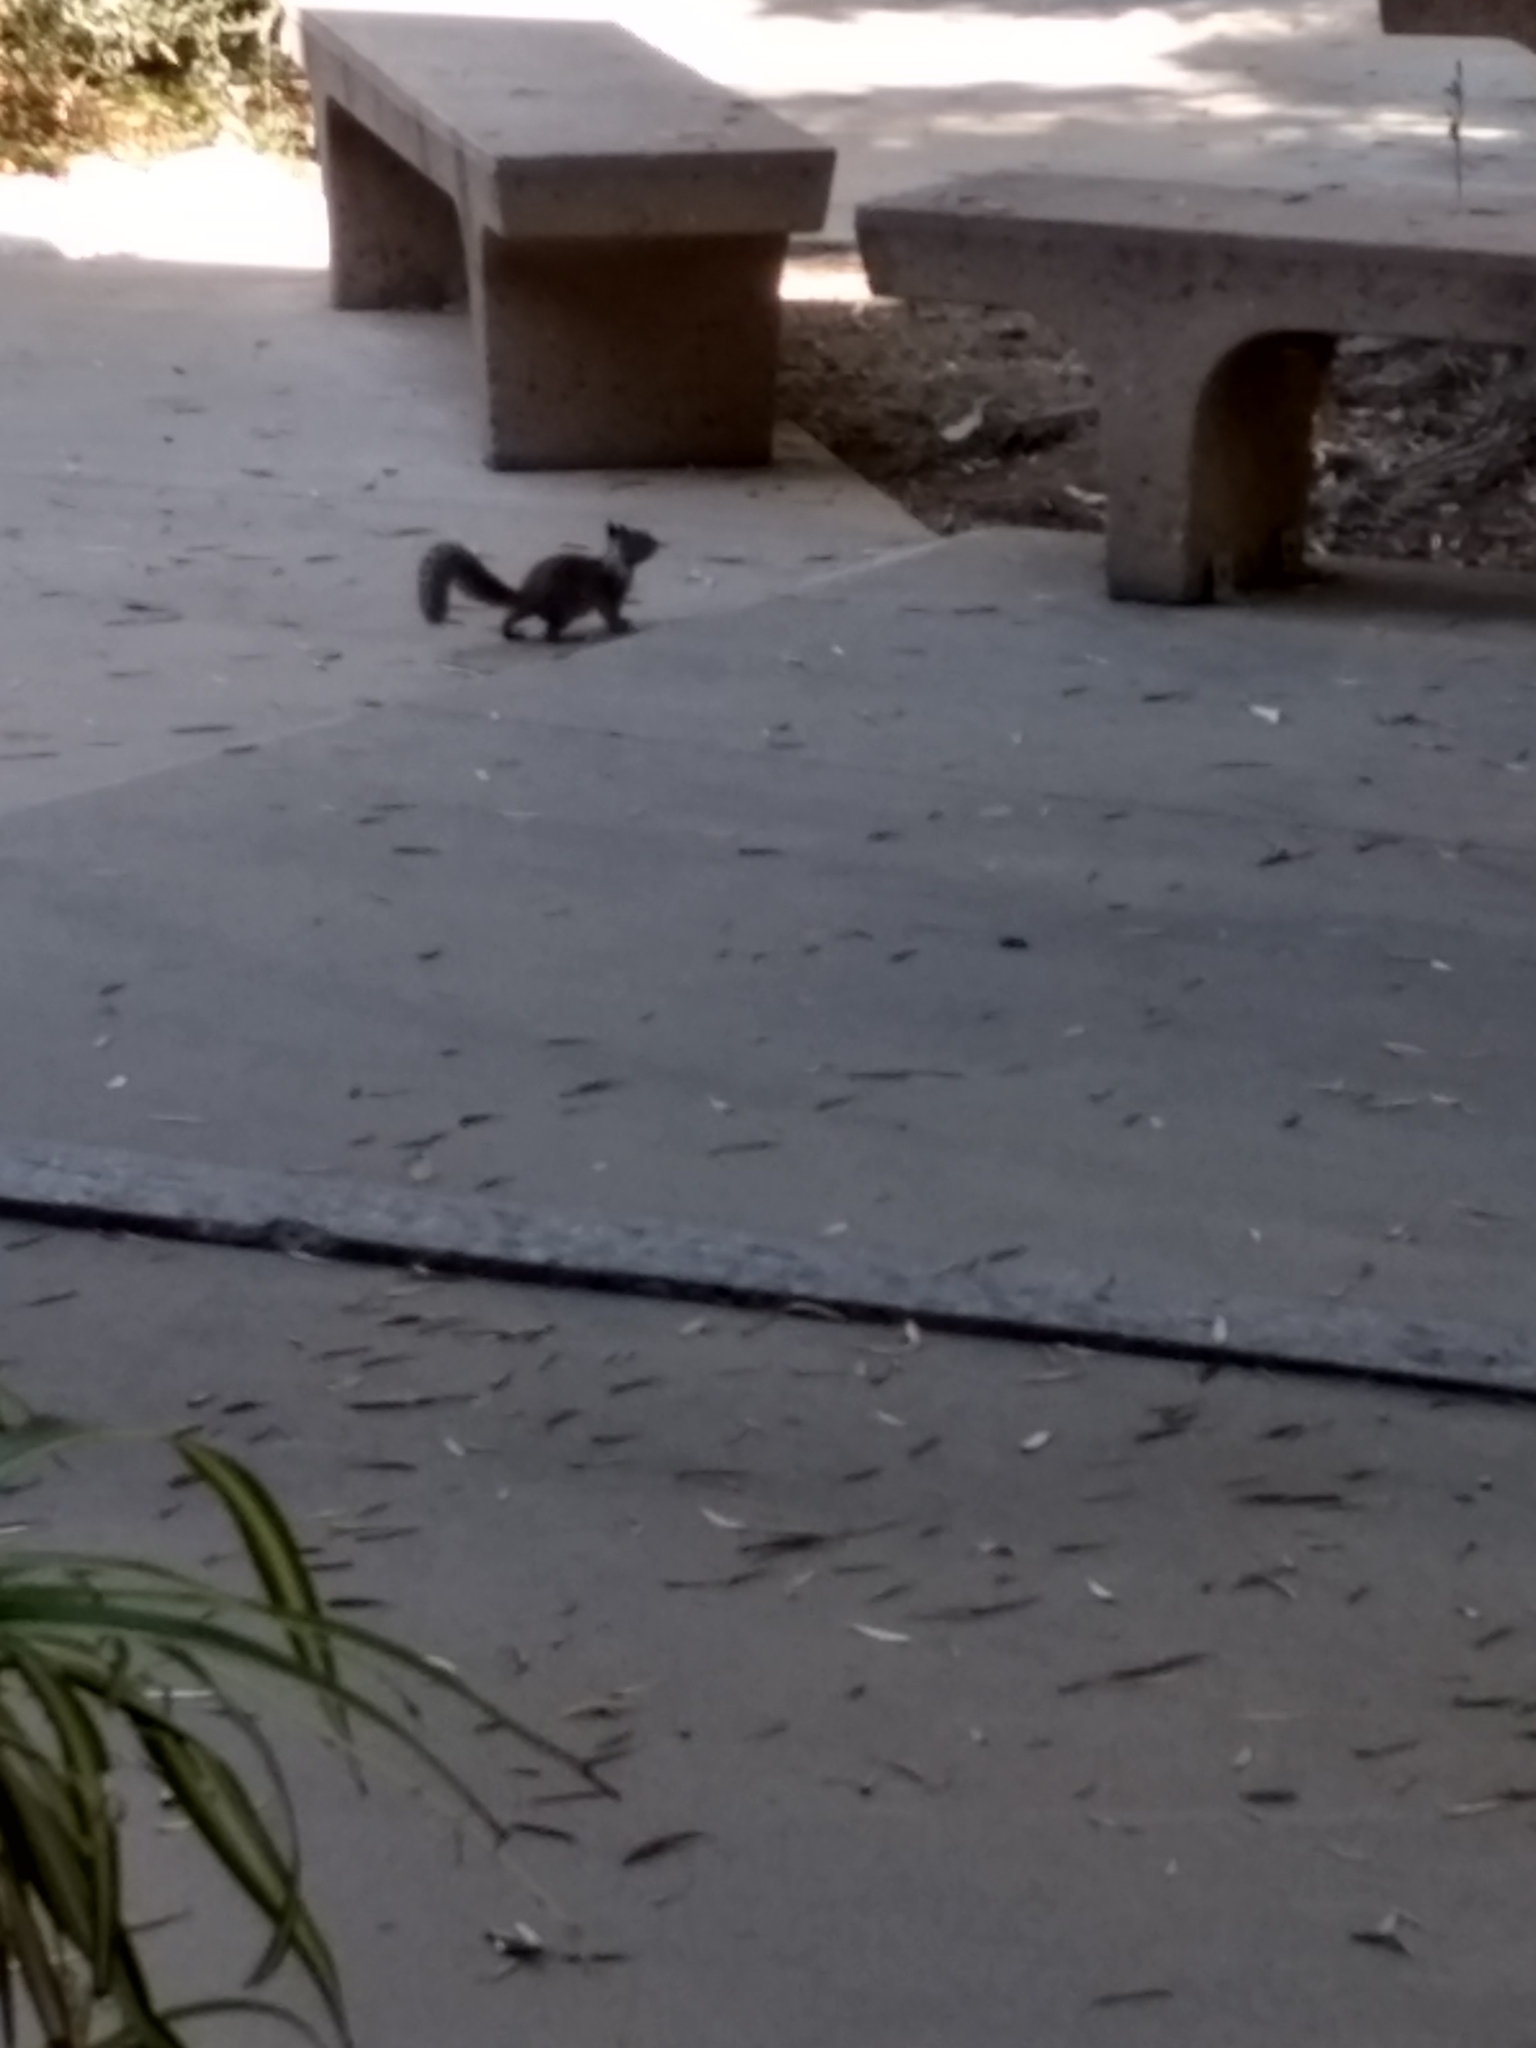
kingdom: Animalia
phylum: Chordata
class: Mammalia
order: Rodentia
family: Sciuridae
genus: Otospermophilus
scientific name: Otospermophilus beecheyi
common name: California ground squirrel
